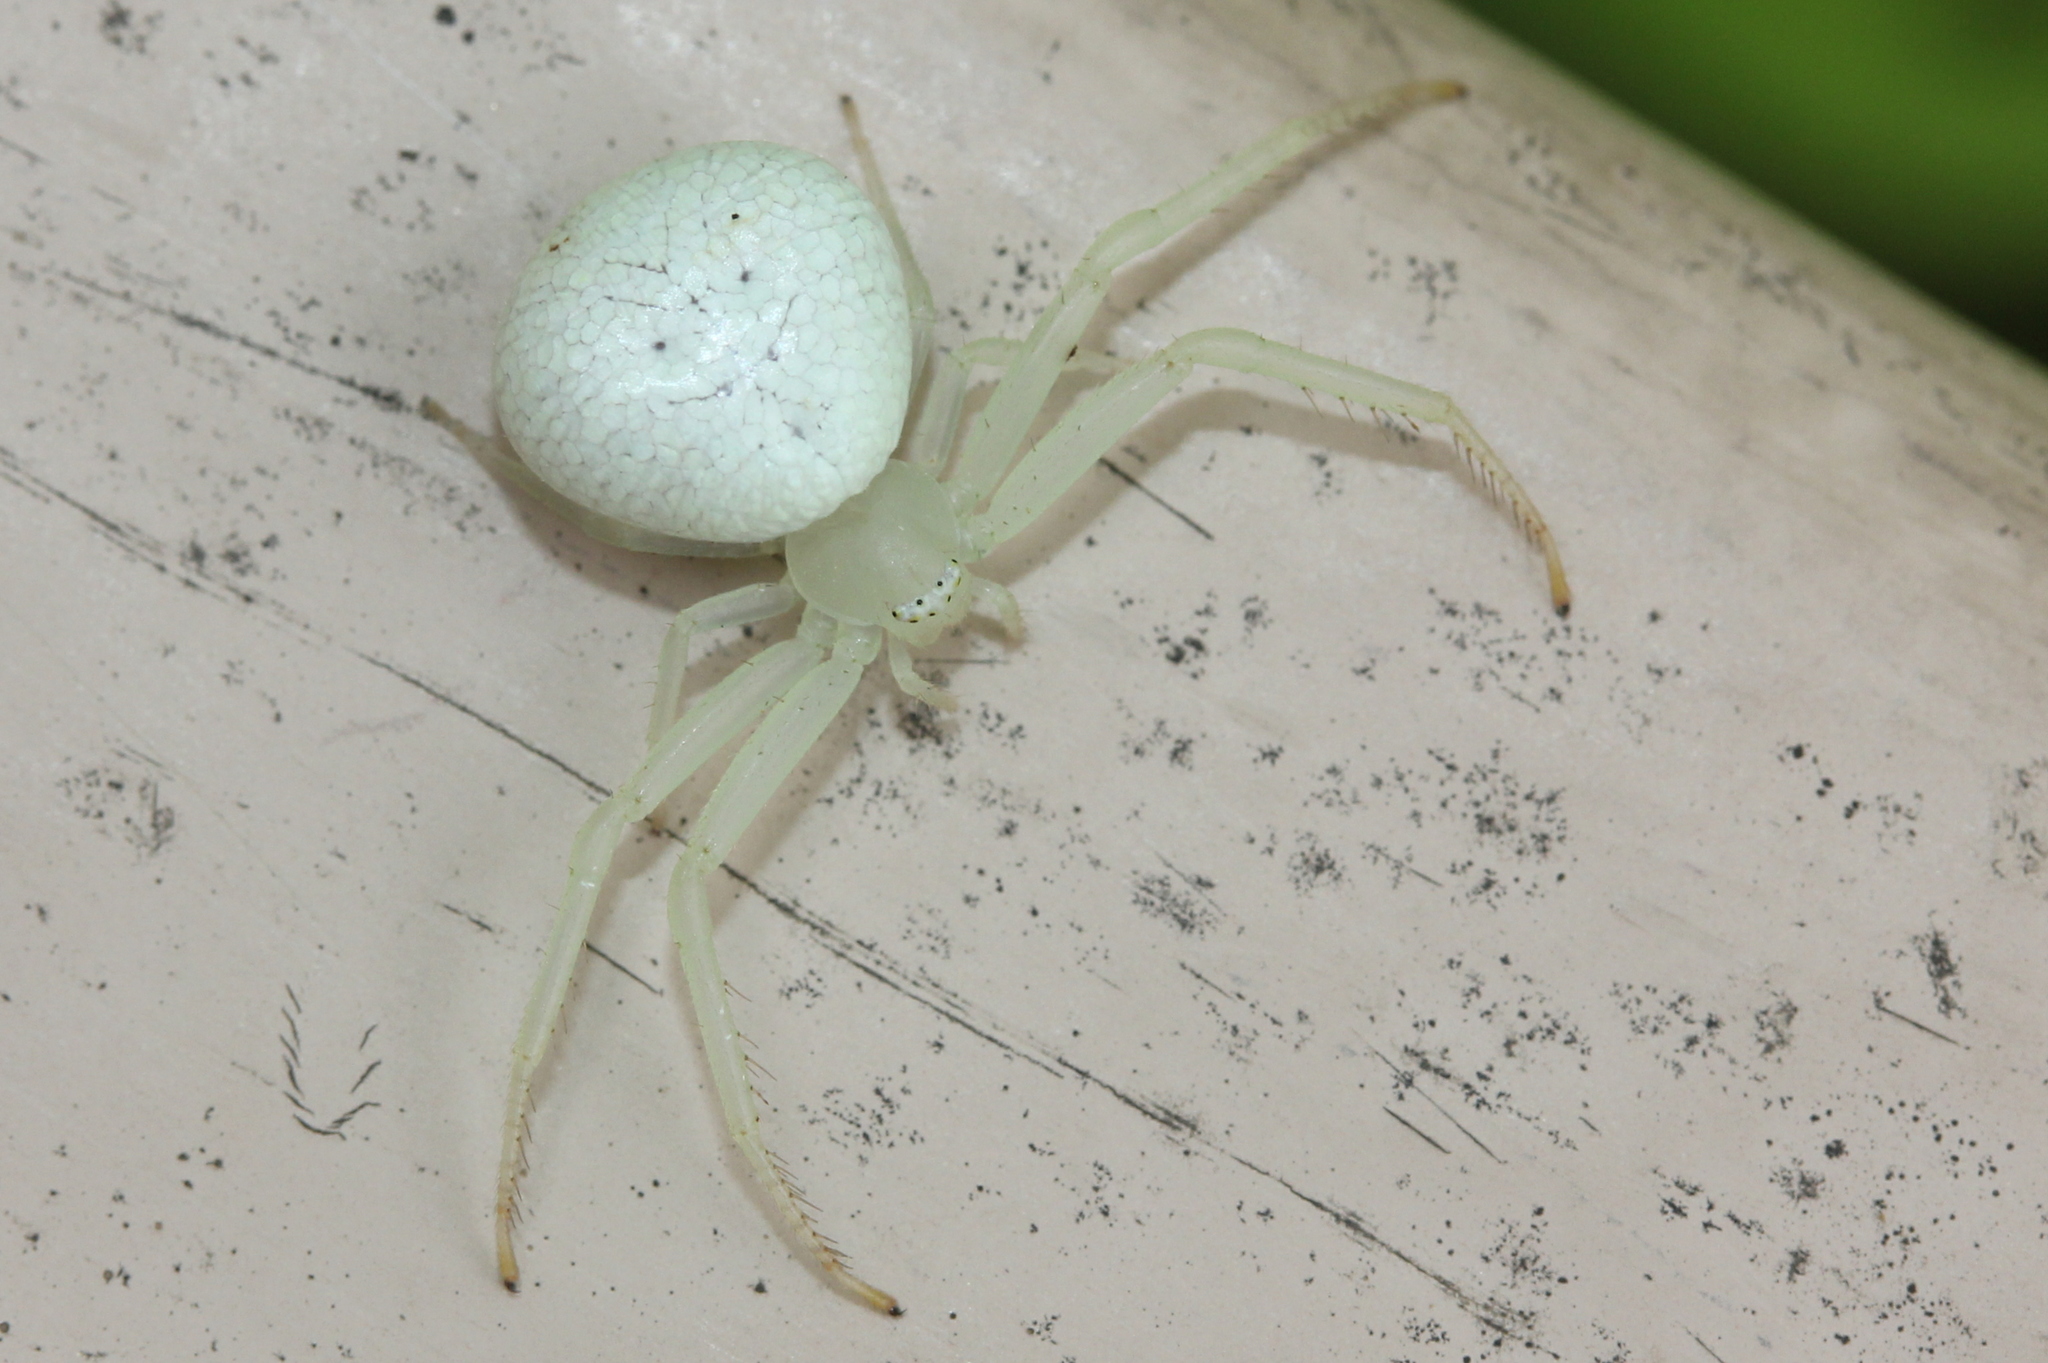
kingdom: Animalia
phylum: Arthropoda
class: Arachnida
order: Araneae
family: Thomisidae
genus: Misumessus
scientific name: Misumessus oblongus
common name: American green crab spider
